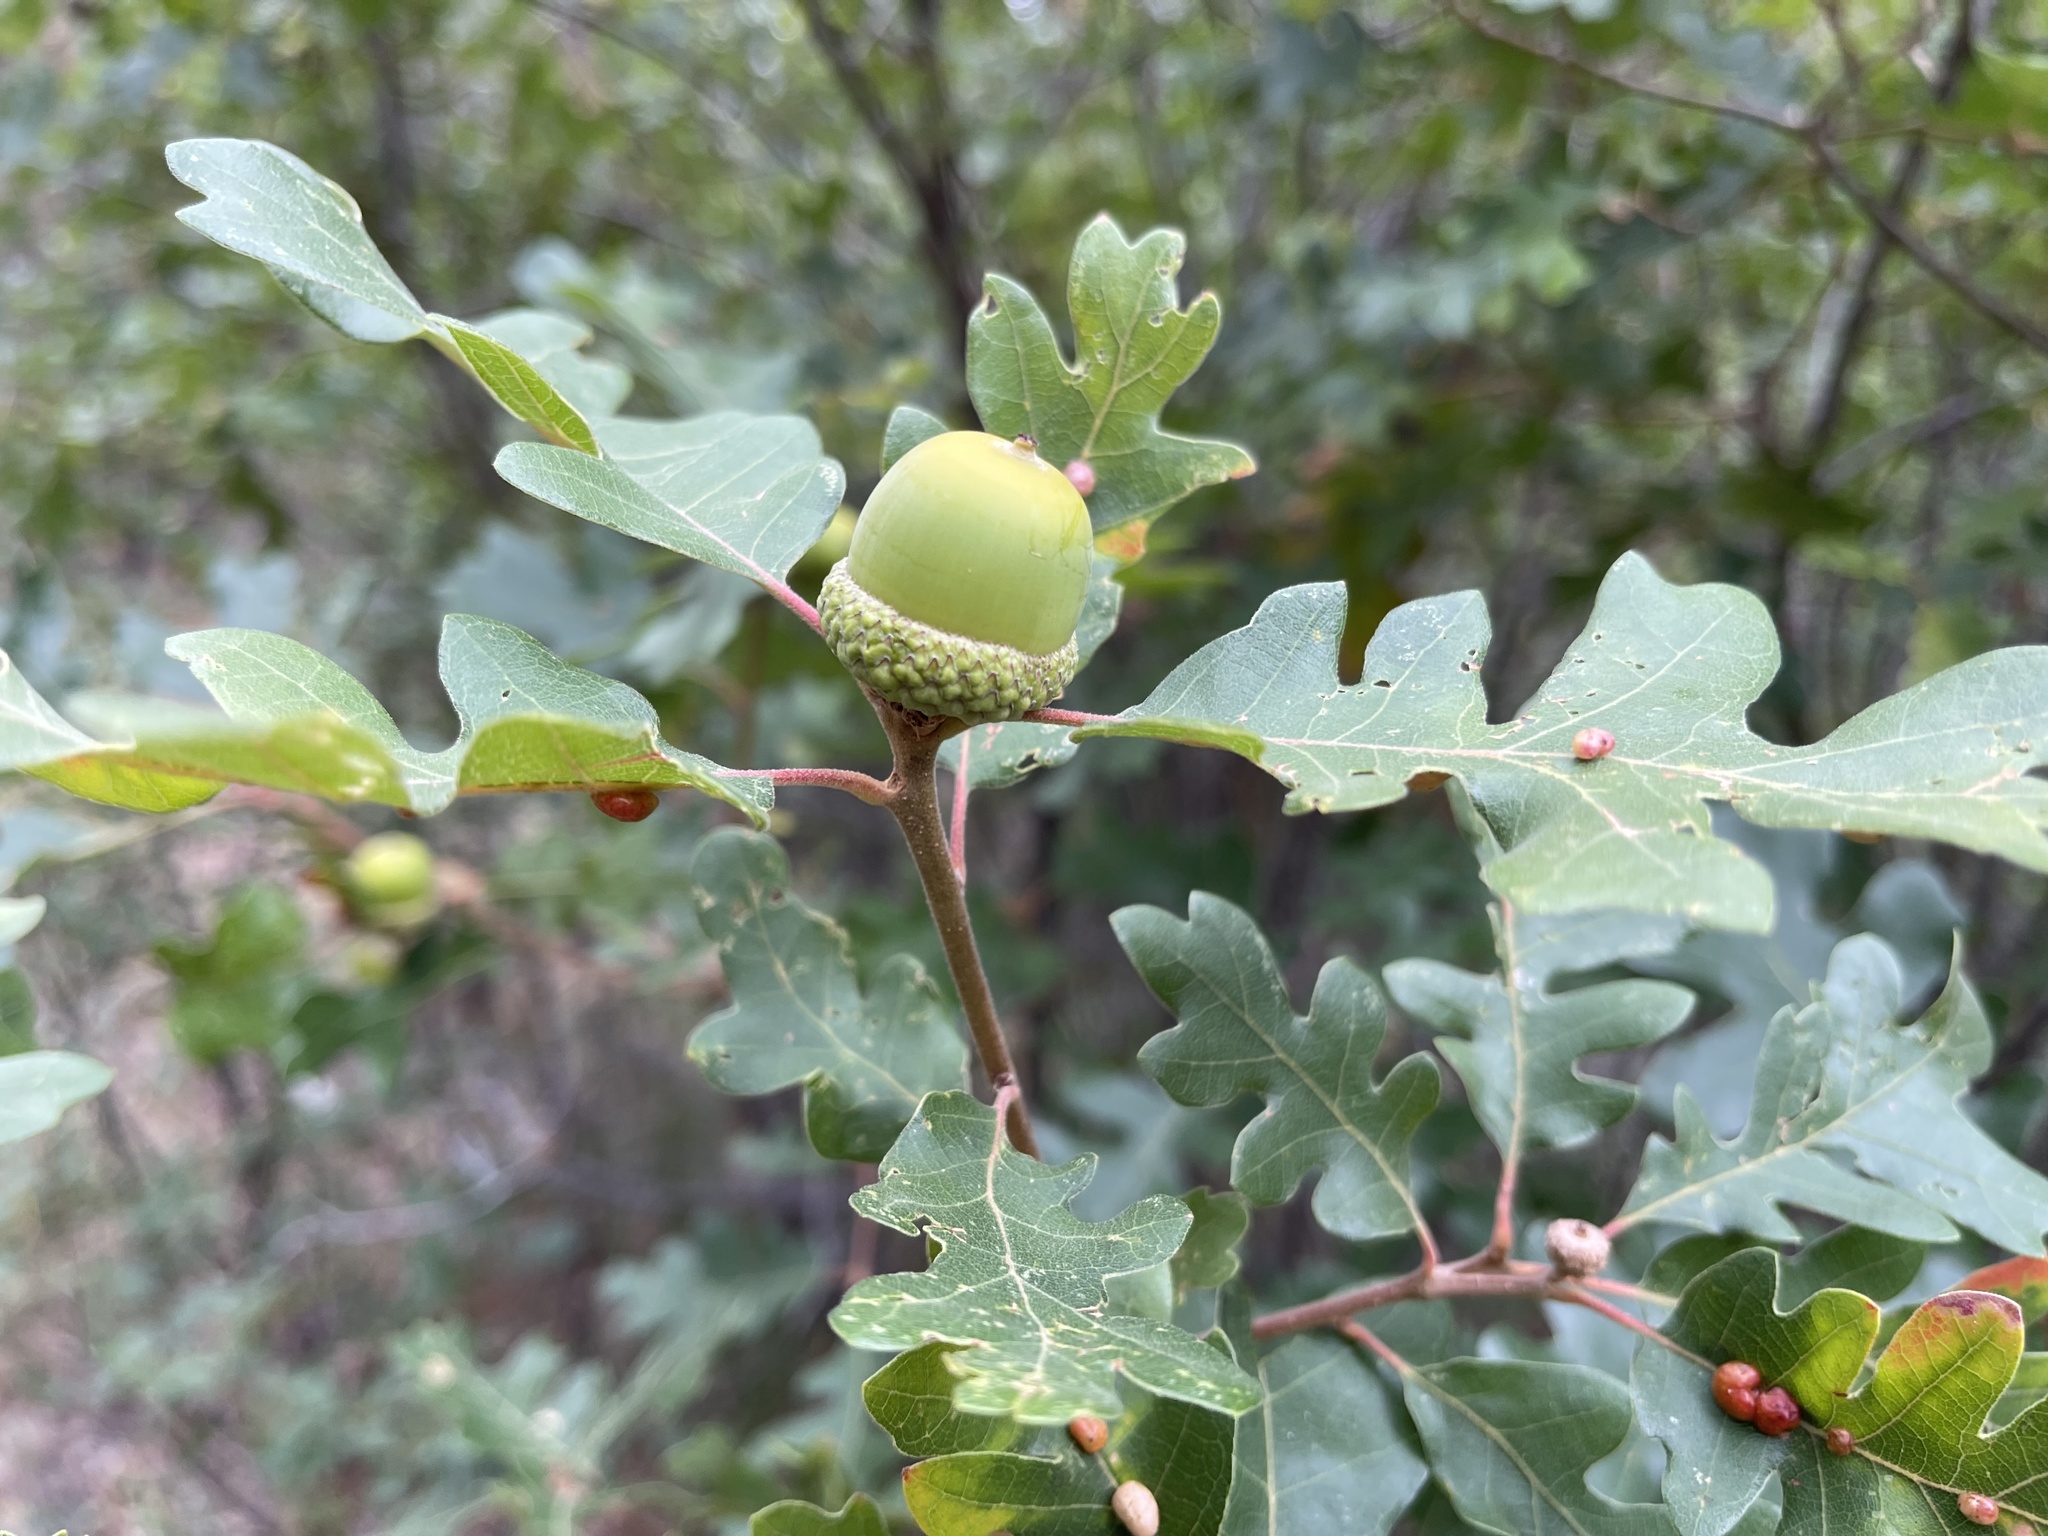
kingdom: Plantae
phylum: Tracheophyta
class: Magnoliopsida
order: Fagales
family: Fagaceae
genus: Quercus
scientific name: Quercus gambelii
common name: Gambel oak
